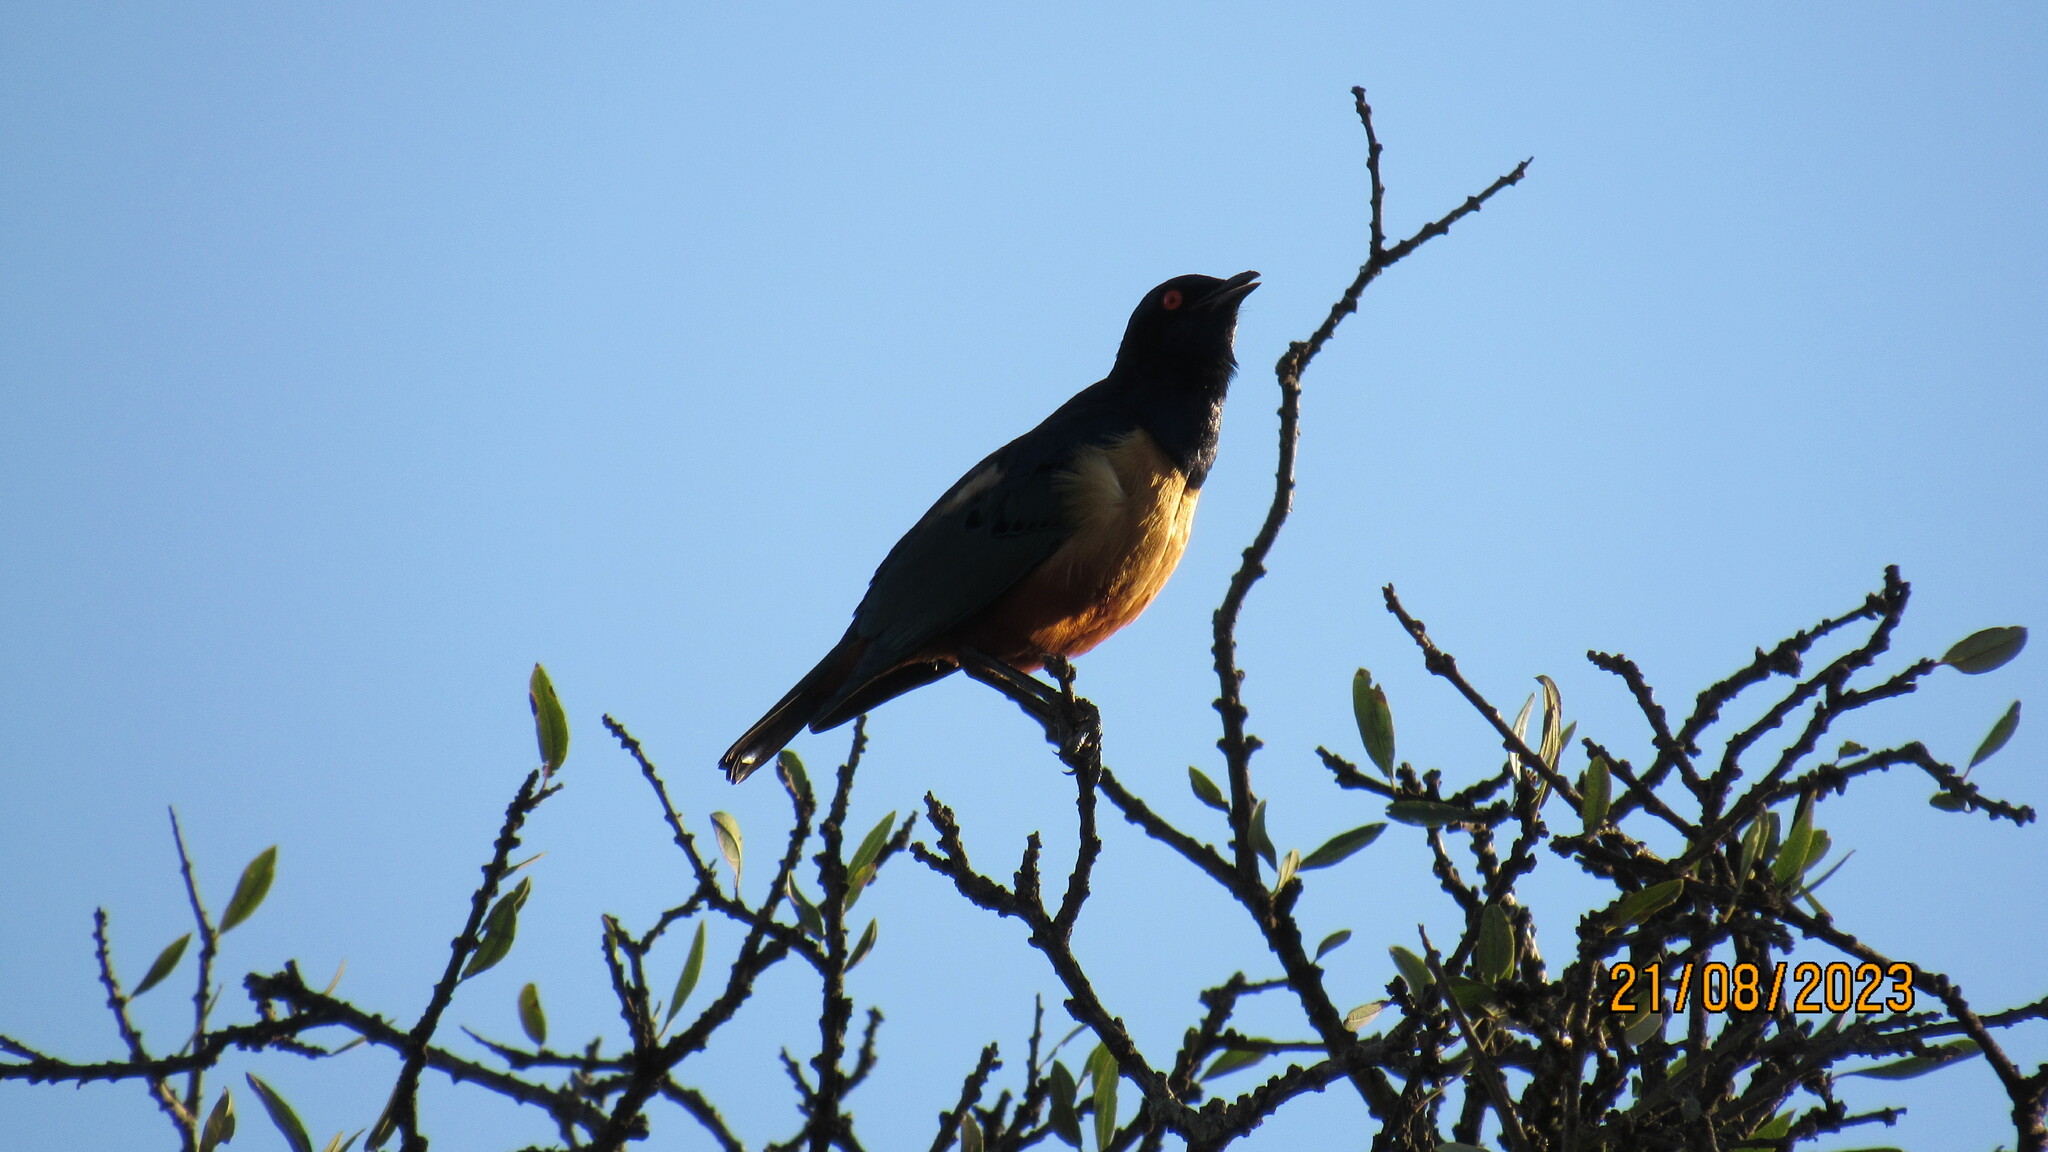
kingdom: Animalia
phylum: Chordata
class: Aves
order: Passeriformes
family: Sturnidae
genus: Lamprotornis
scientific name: Lamprotornis hildebrandti
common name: Hildebrandt's starling
